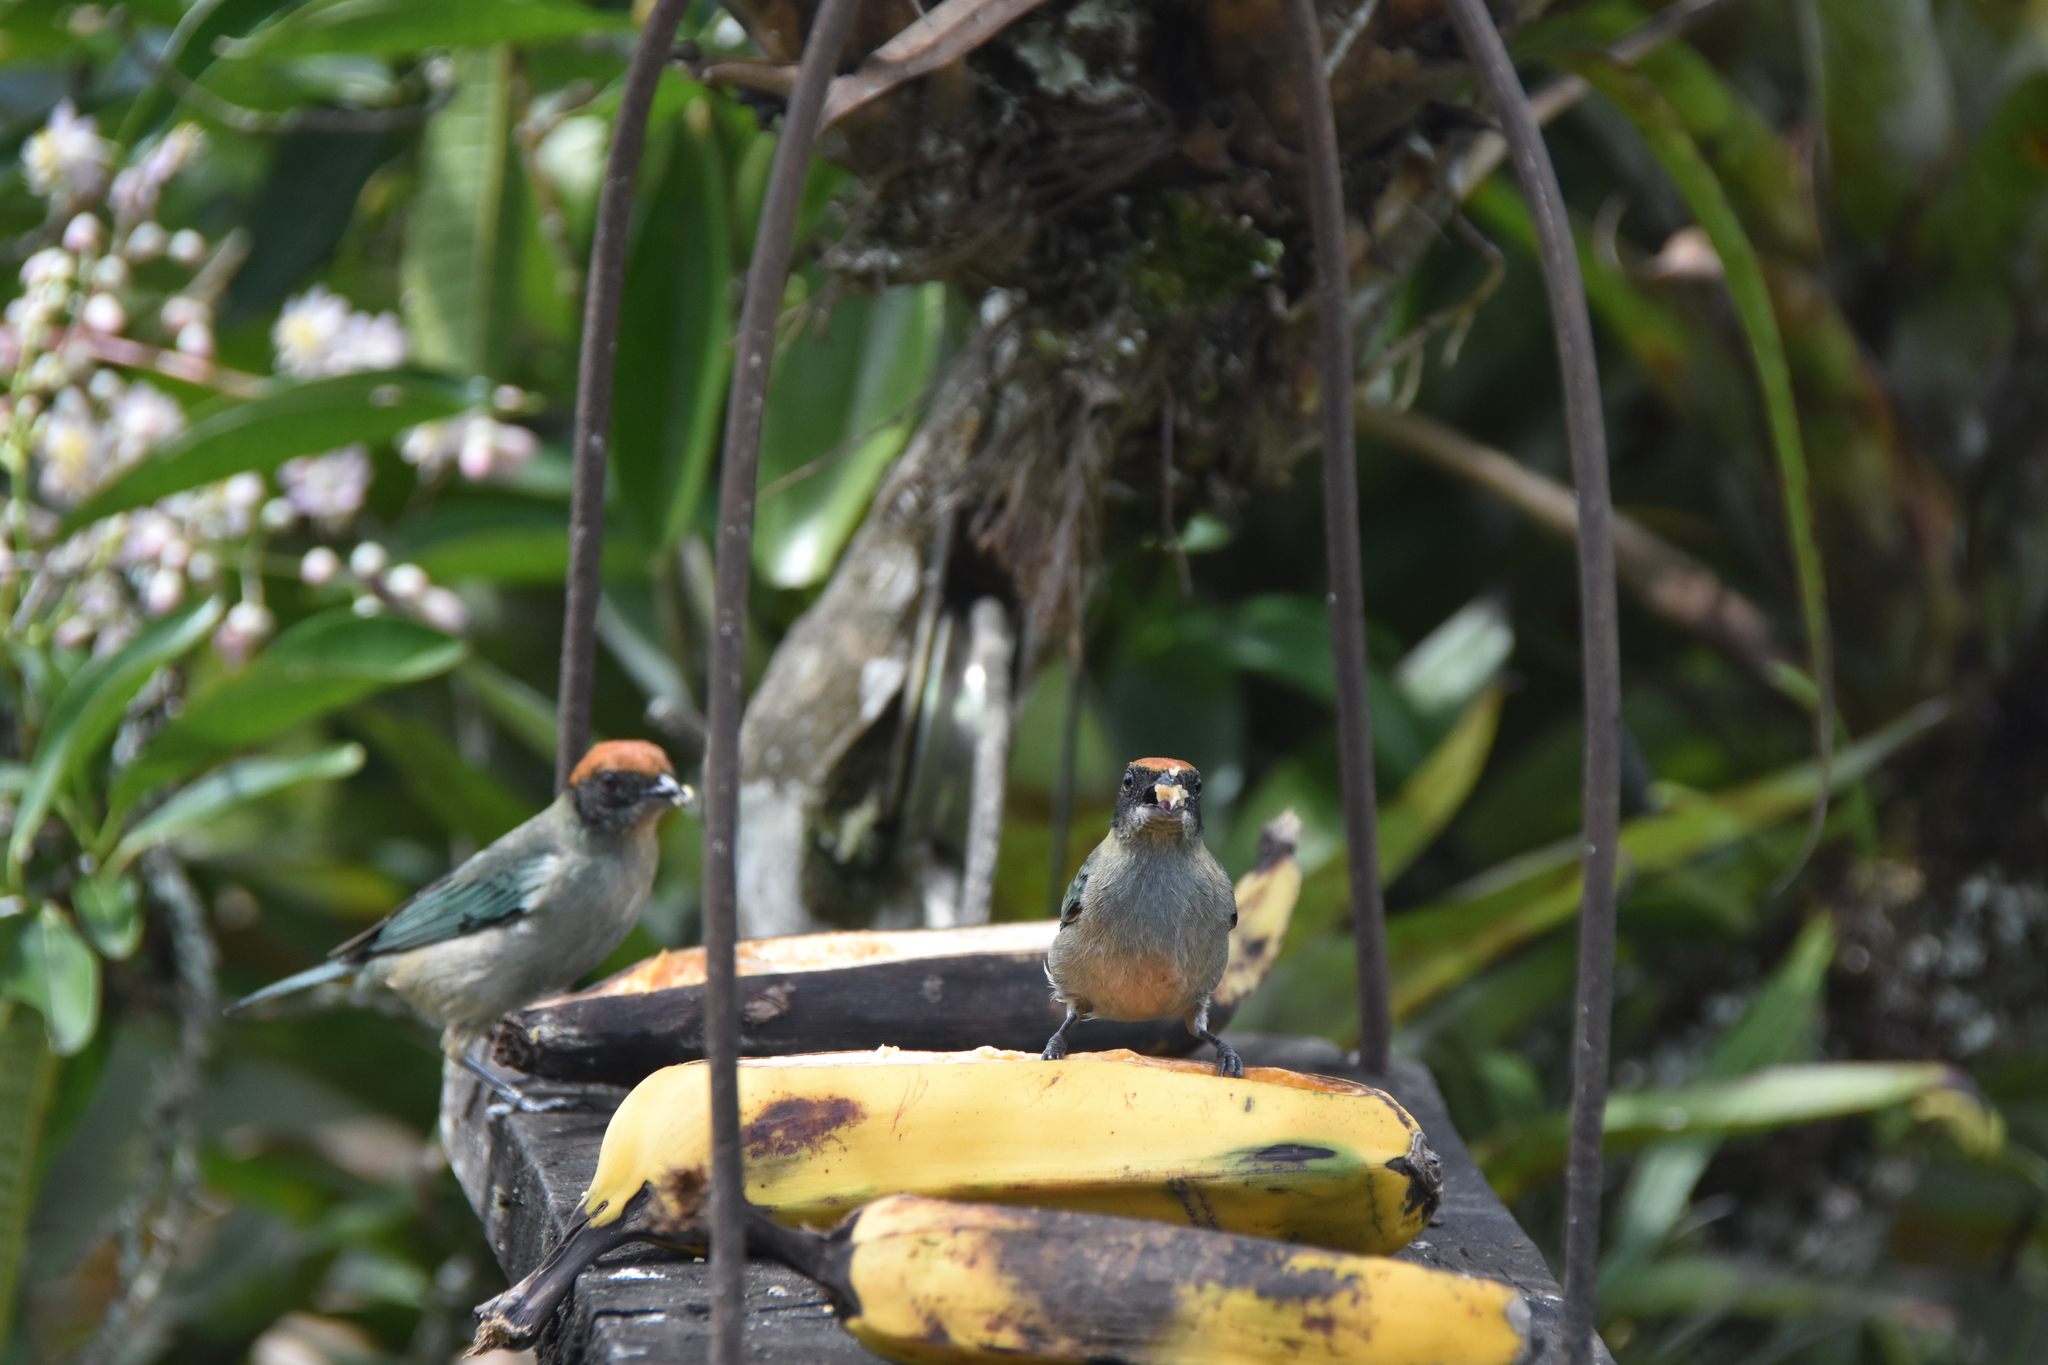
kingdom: Animalia
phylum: Chordata
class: Aves
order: Passeriformes
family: Thraupidae
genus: Stilpnia
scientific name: Stilpnia vitriolina
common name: Scrub tanager
